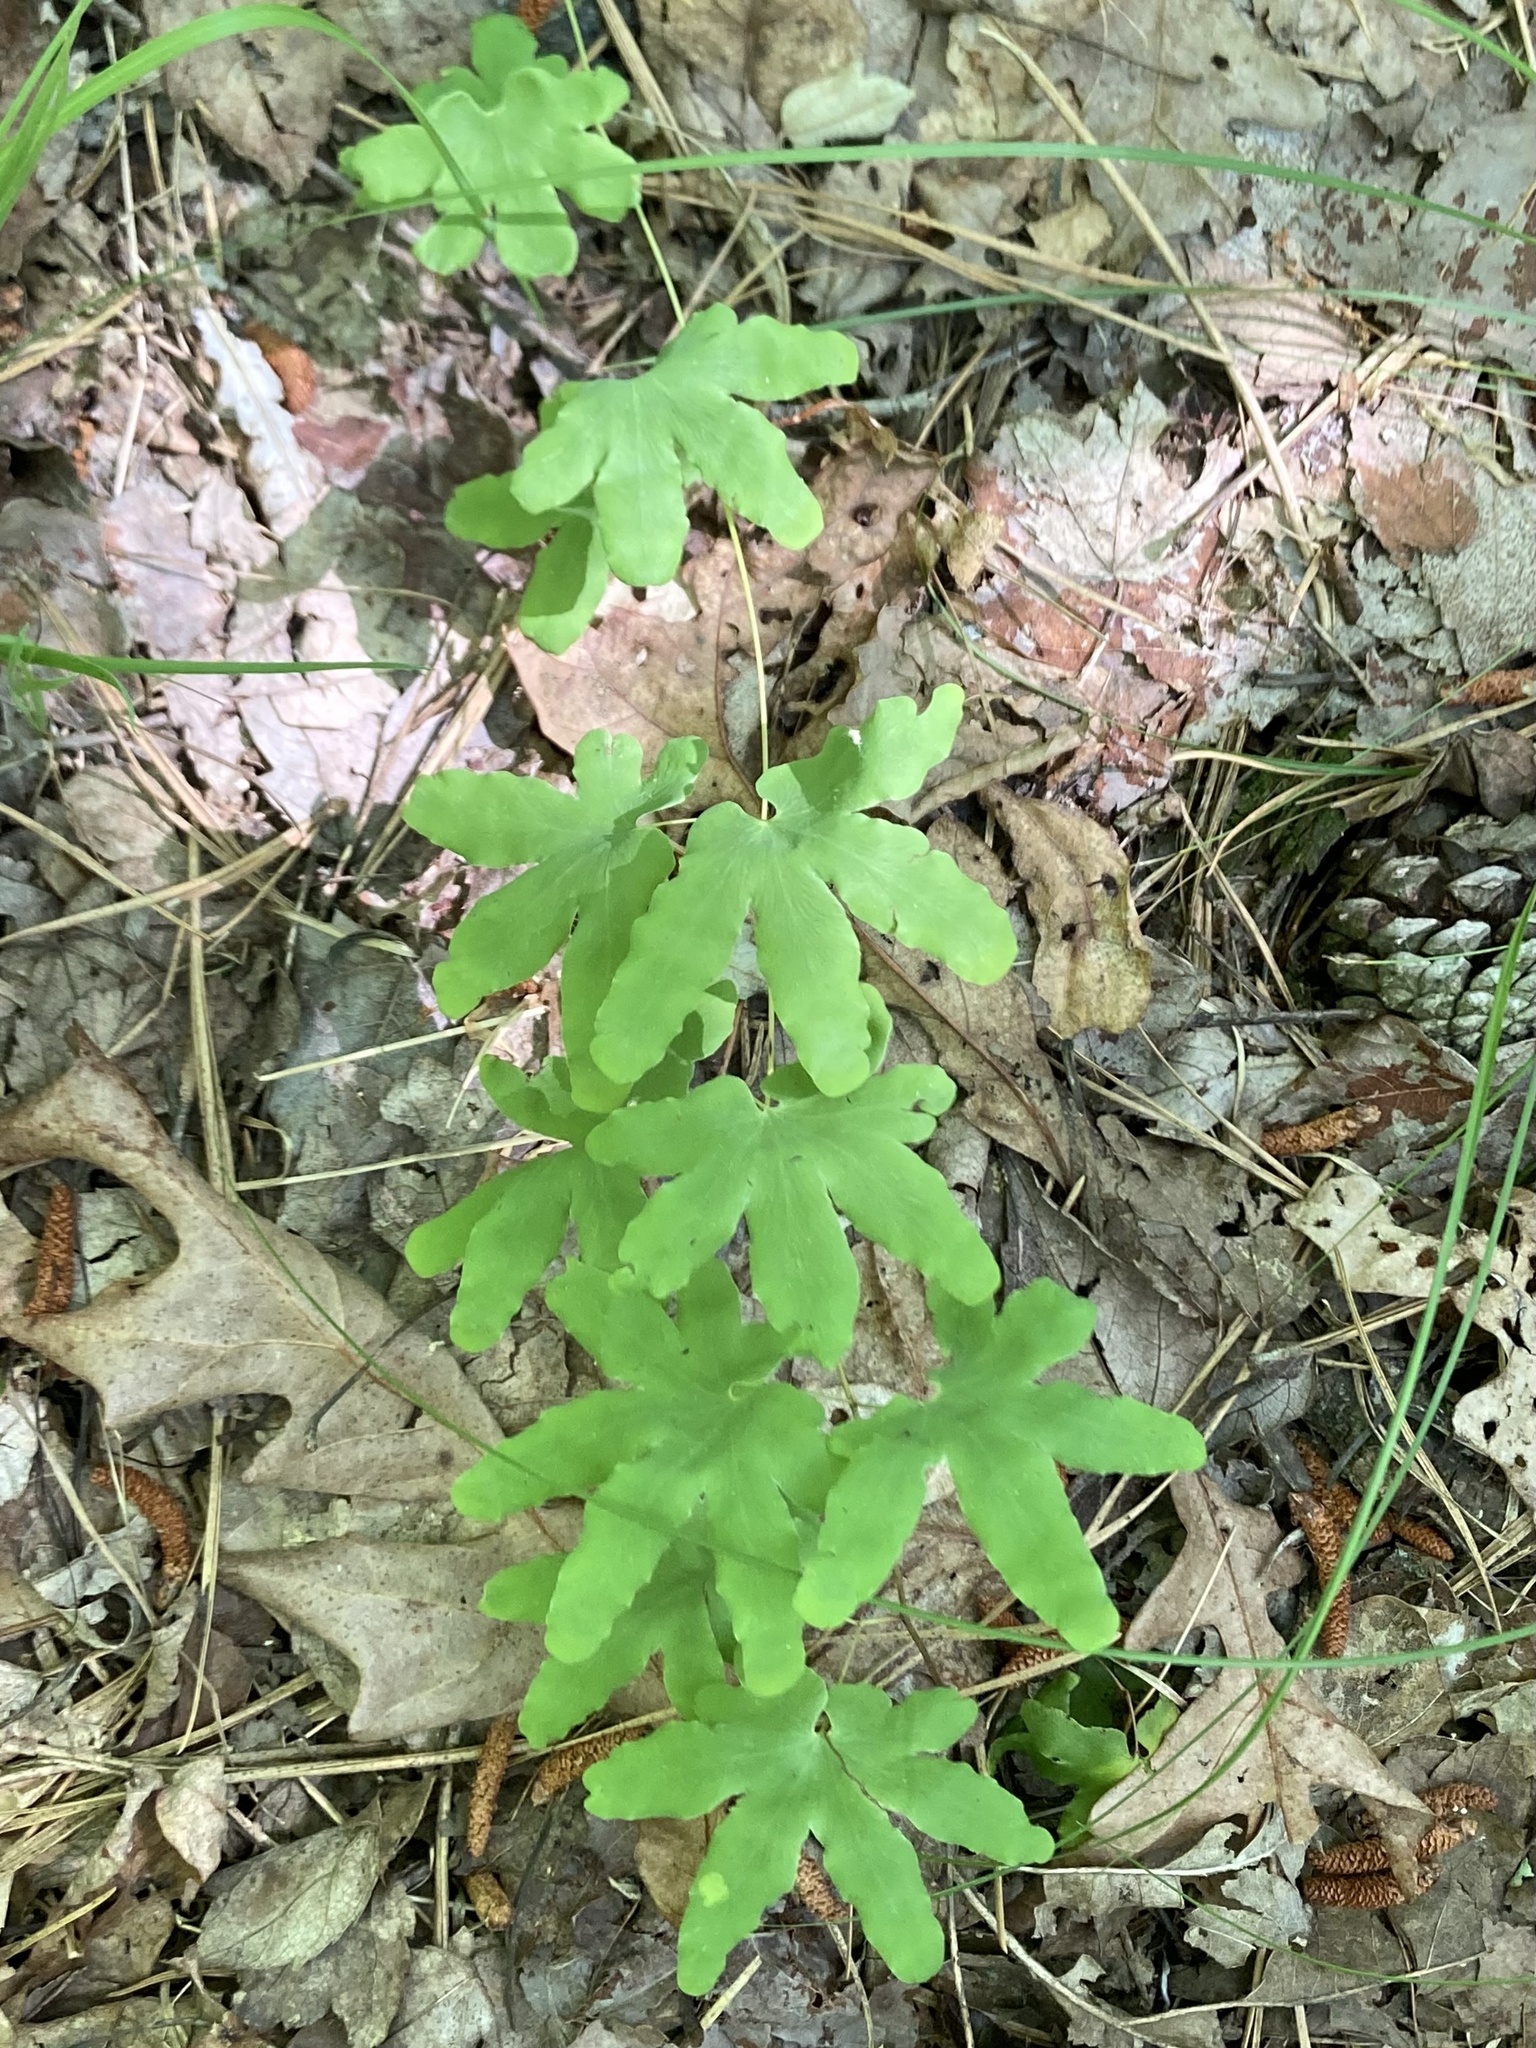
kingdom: Plantae
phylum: Tracheophyta
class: Polypodiopsida
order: Schizaeales
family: Lygodiaceae
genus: Lygodium
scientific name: Lygodium palmatum
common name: American climbing fern
